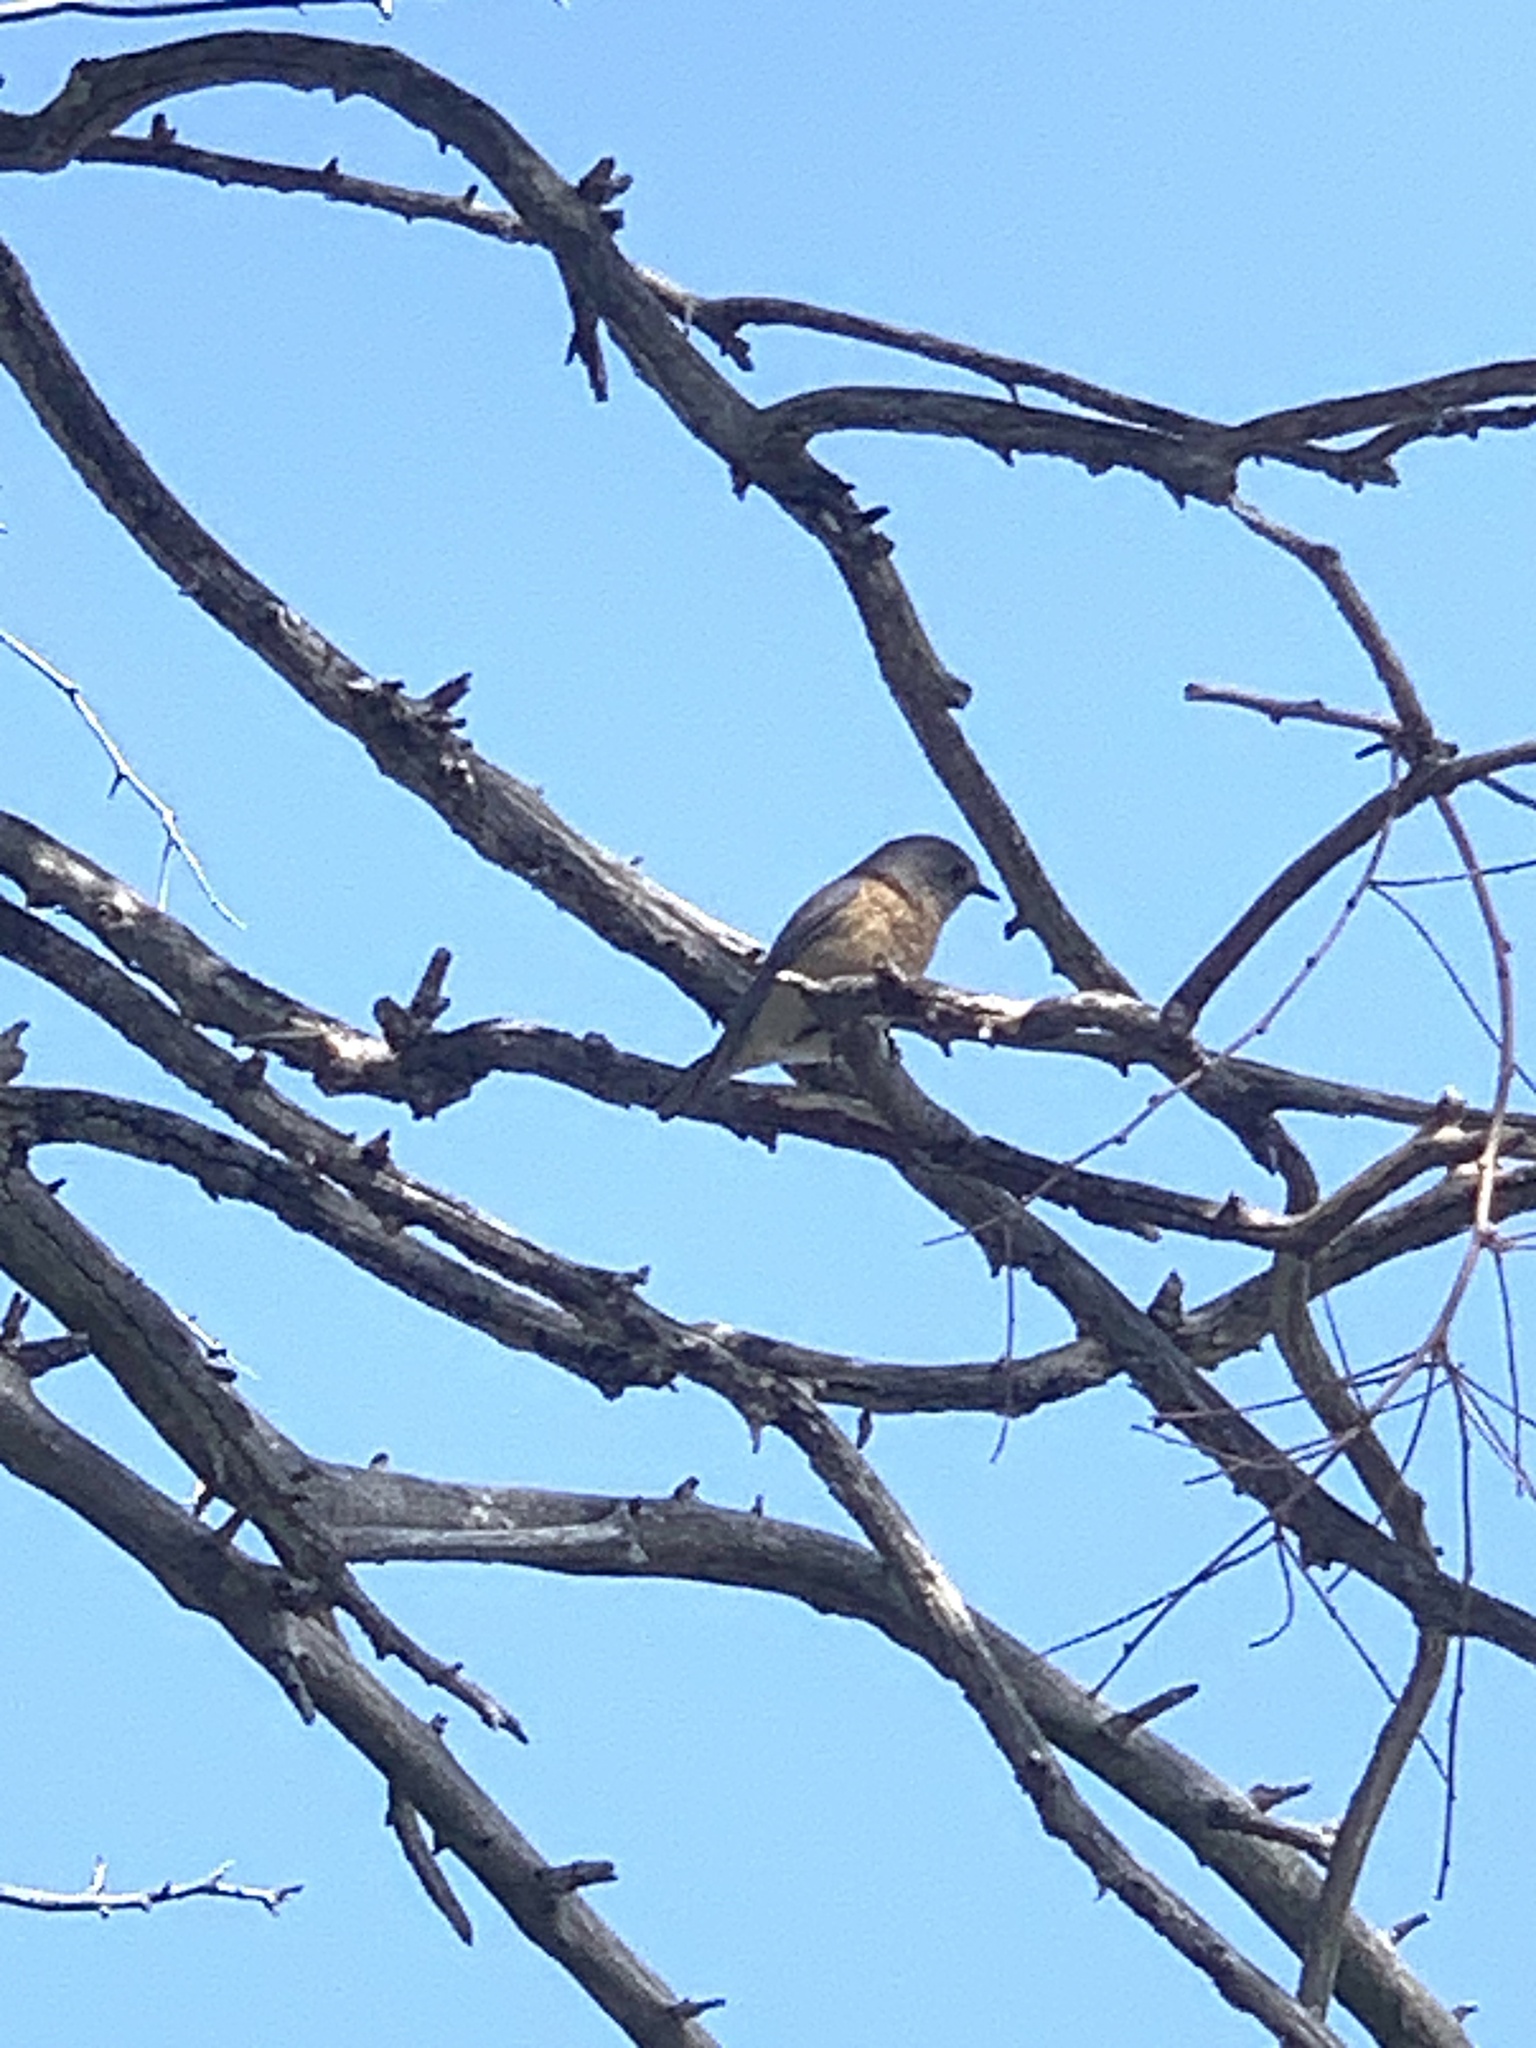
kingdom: Animalia
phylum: Chordata
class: Aves
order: Passeriformes
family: Turdidae
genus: Sialia
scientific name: Sialia mexicana
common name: Western bluebird
